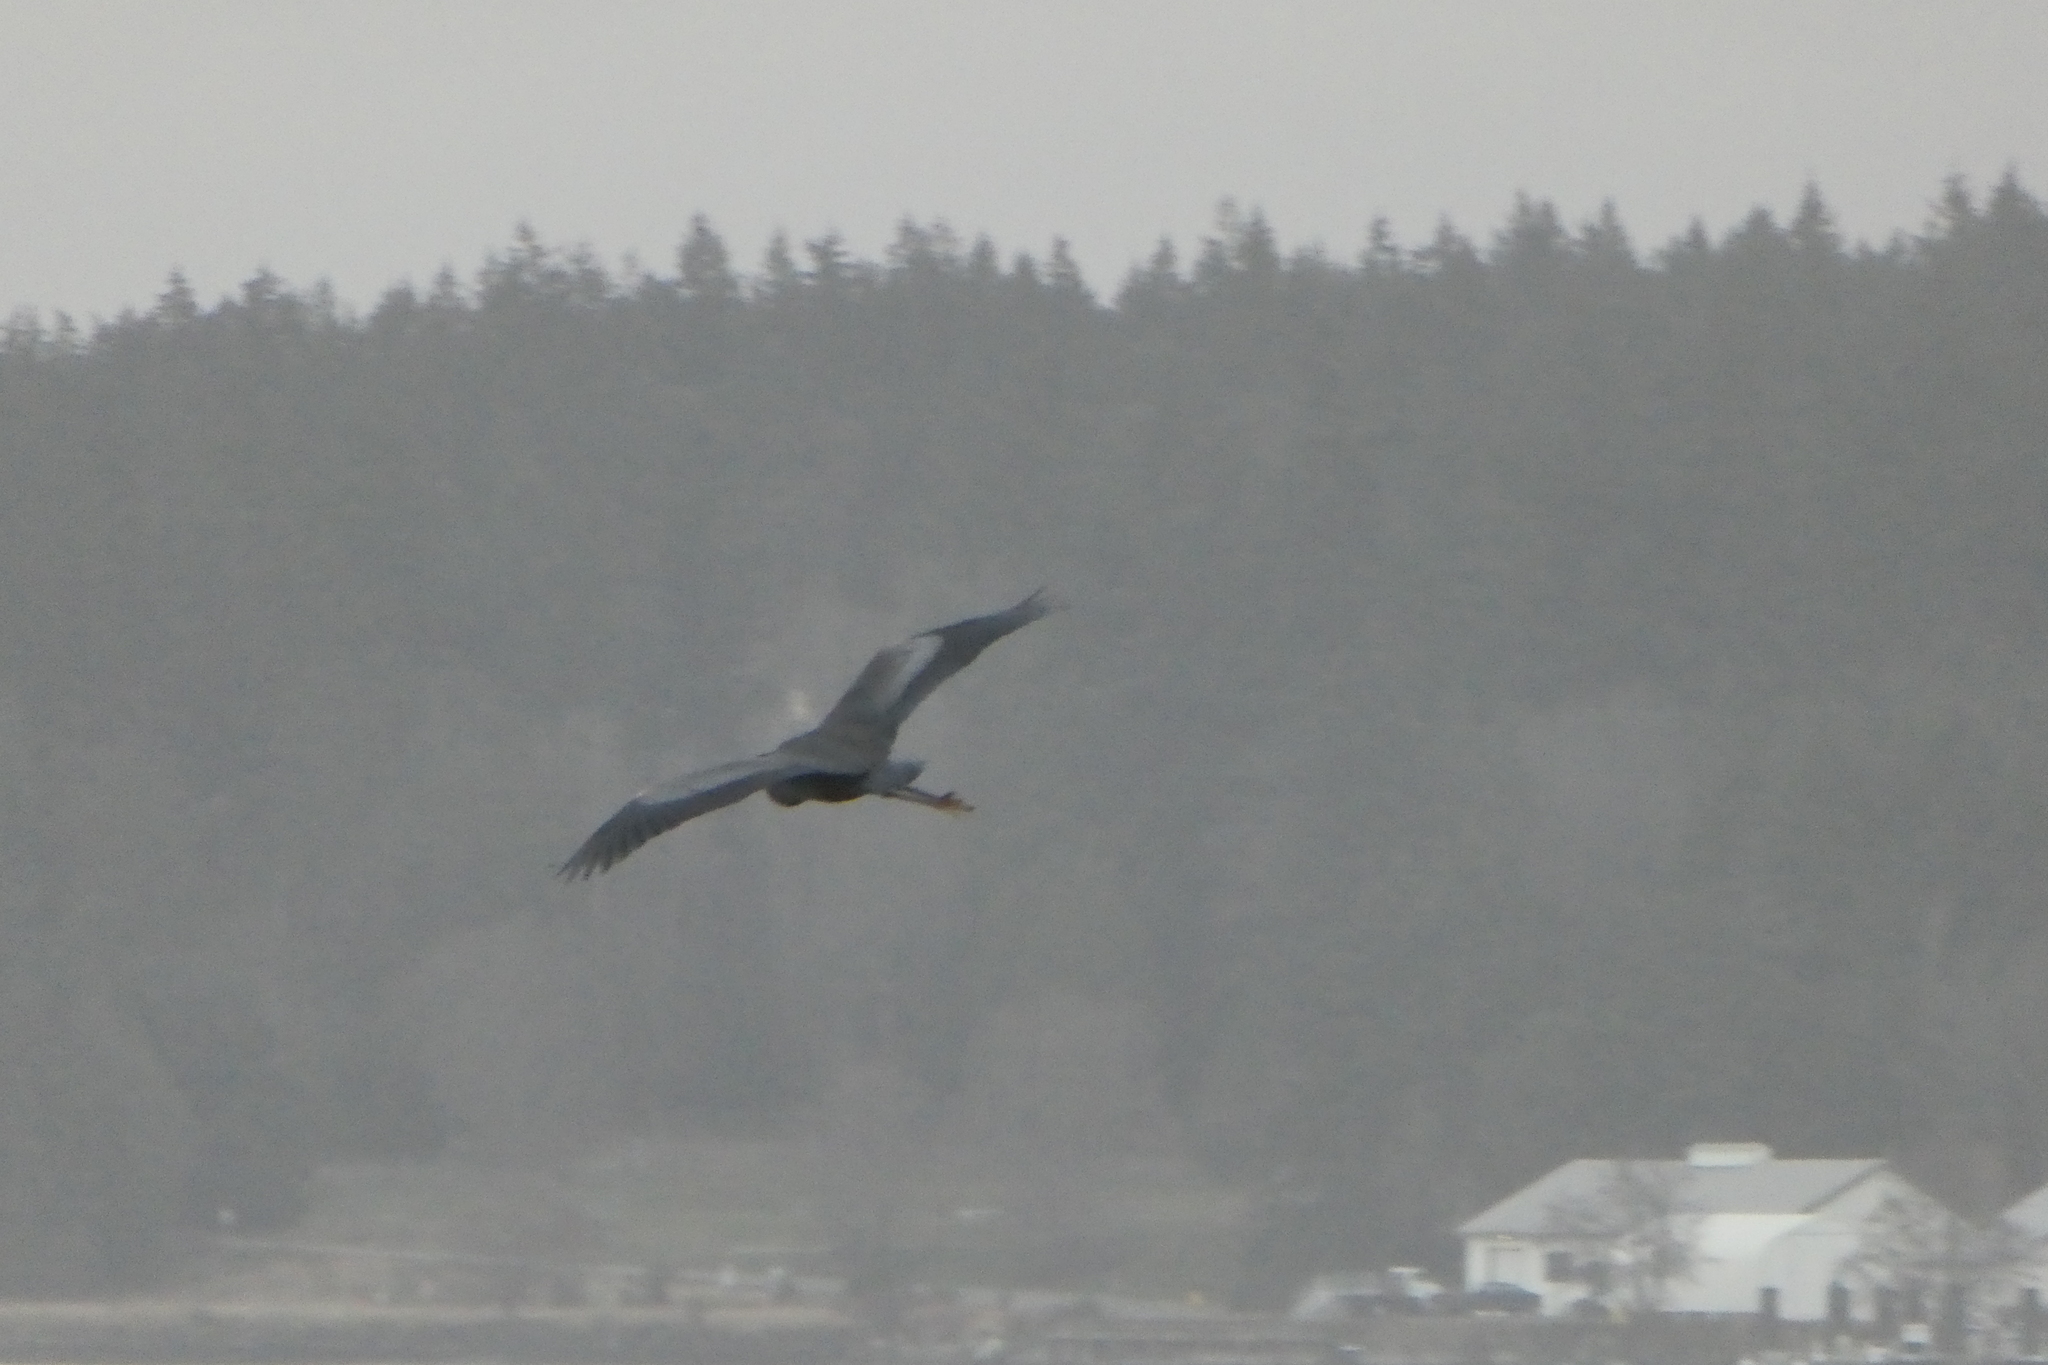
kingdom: Animalia
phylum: Chordata
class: Aves
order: Pelecaniformes
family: Ardeidae
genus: Ardea
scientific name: Ardea herodias
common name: Great blue heron
